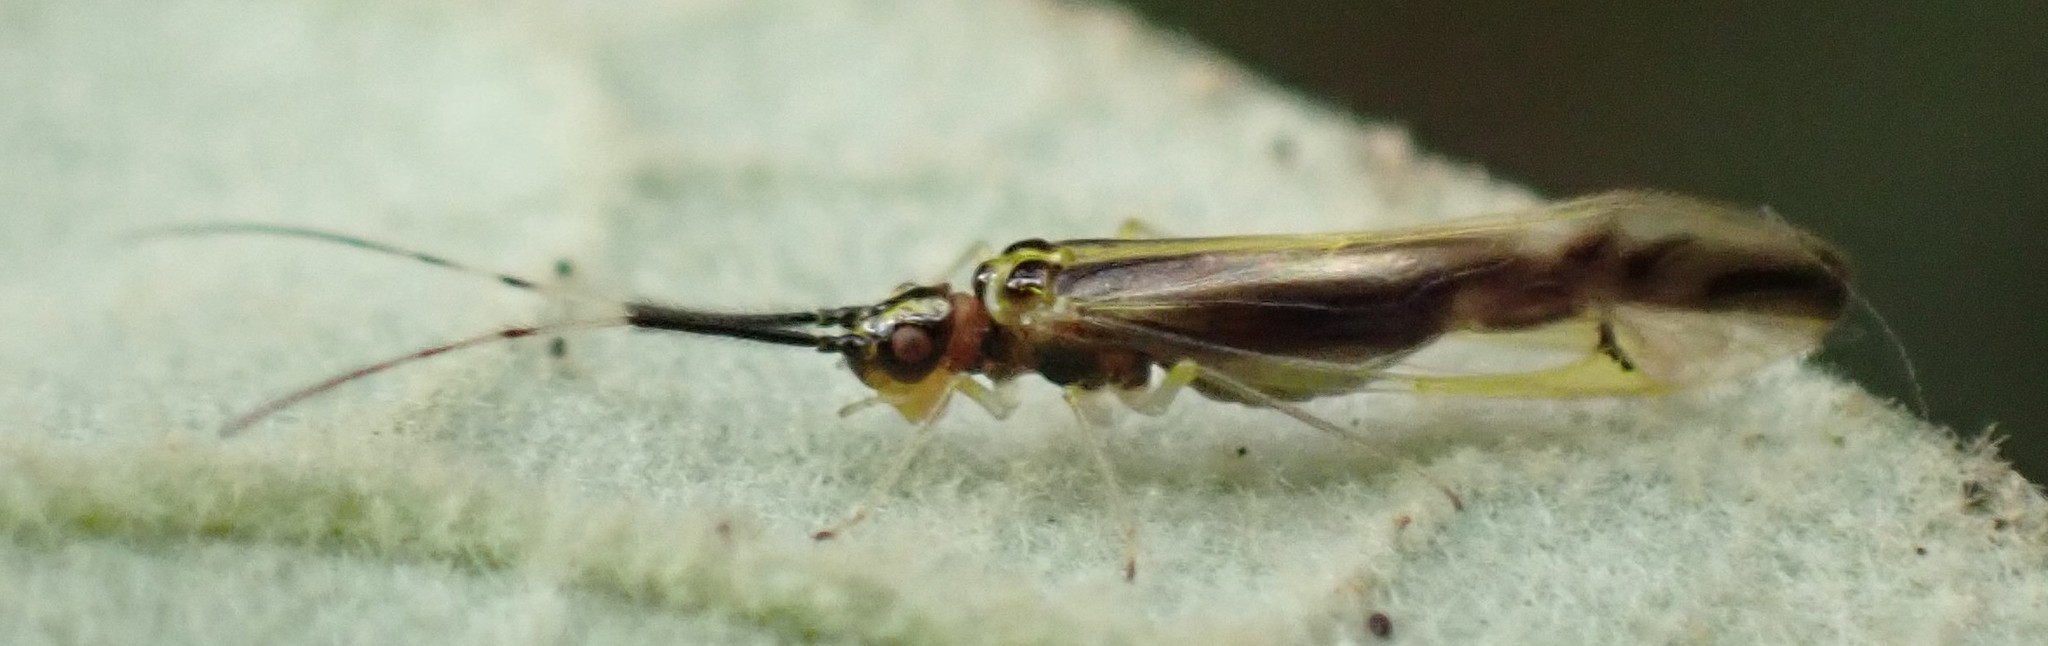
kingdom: Animalia
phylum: Arthropoda
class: Insecta
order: Psocodea
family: Caeciliusidae
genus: Aphyopsocus
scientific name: Aphyopsocus prolixus
